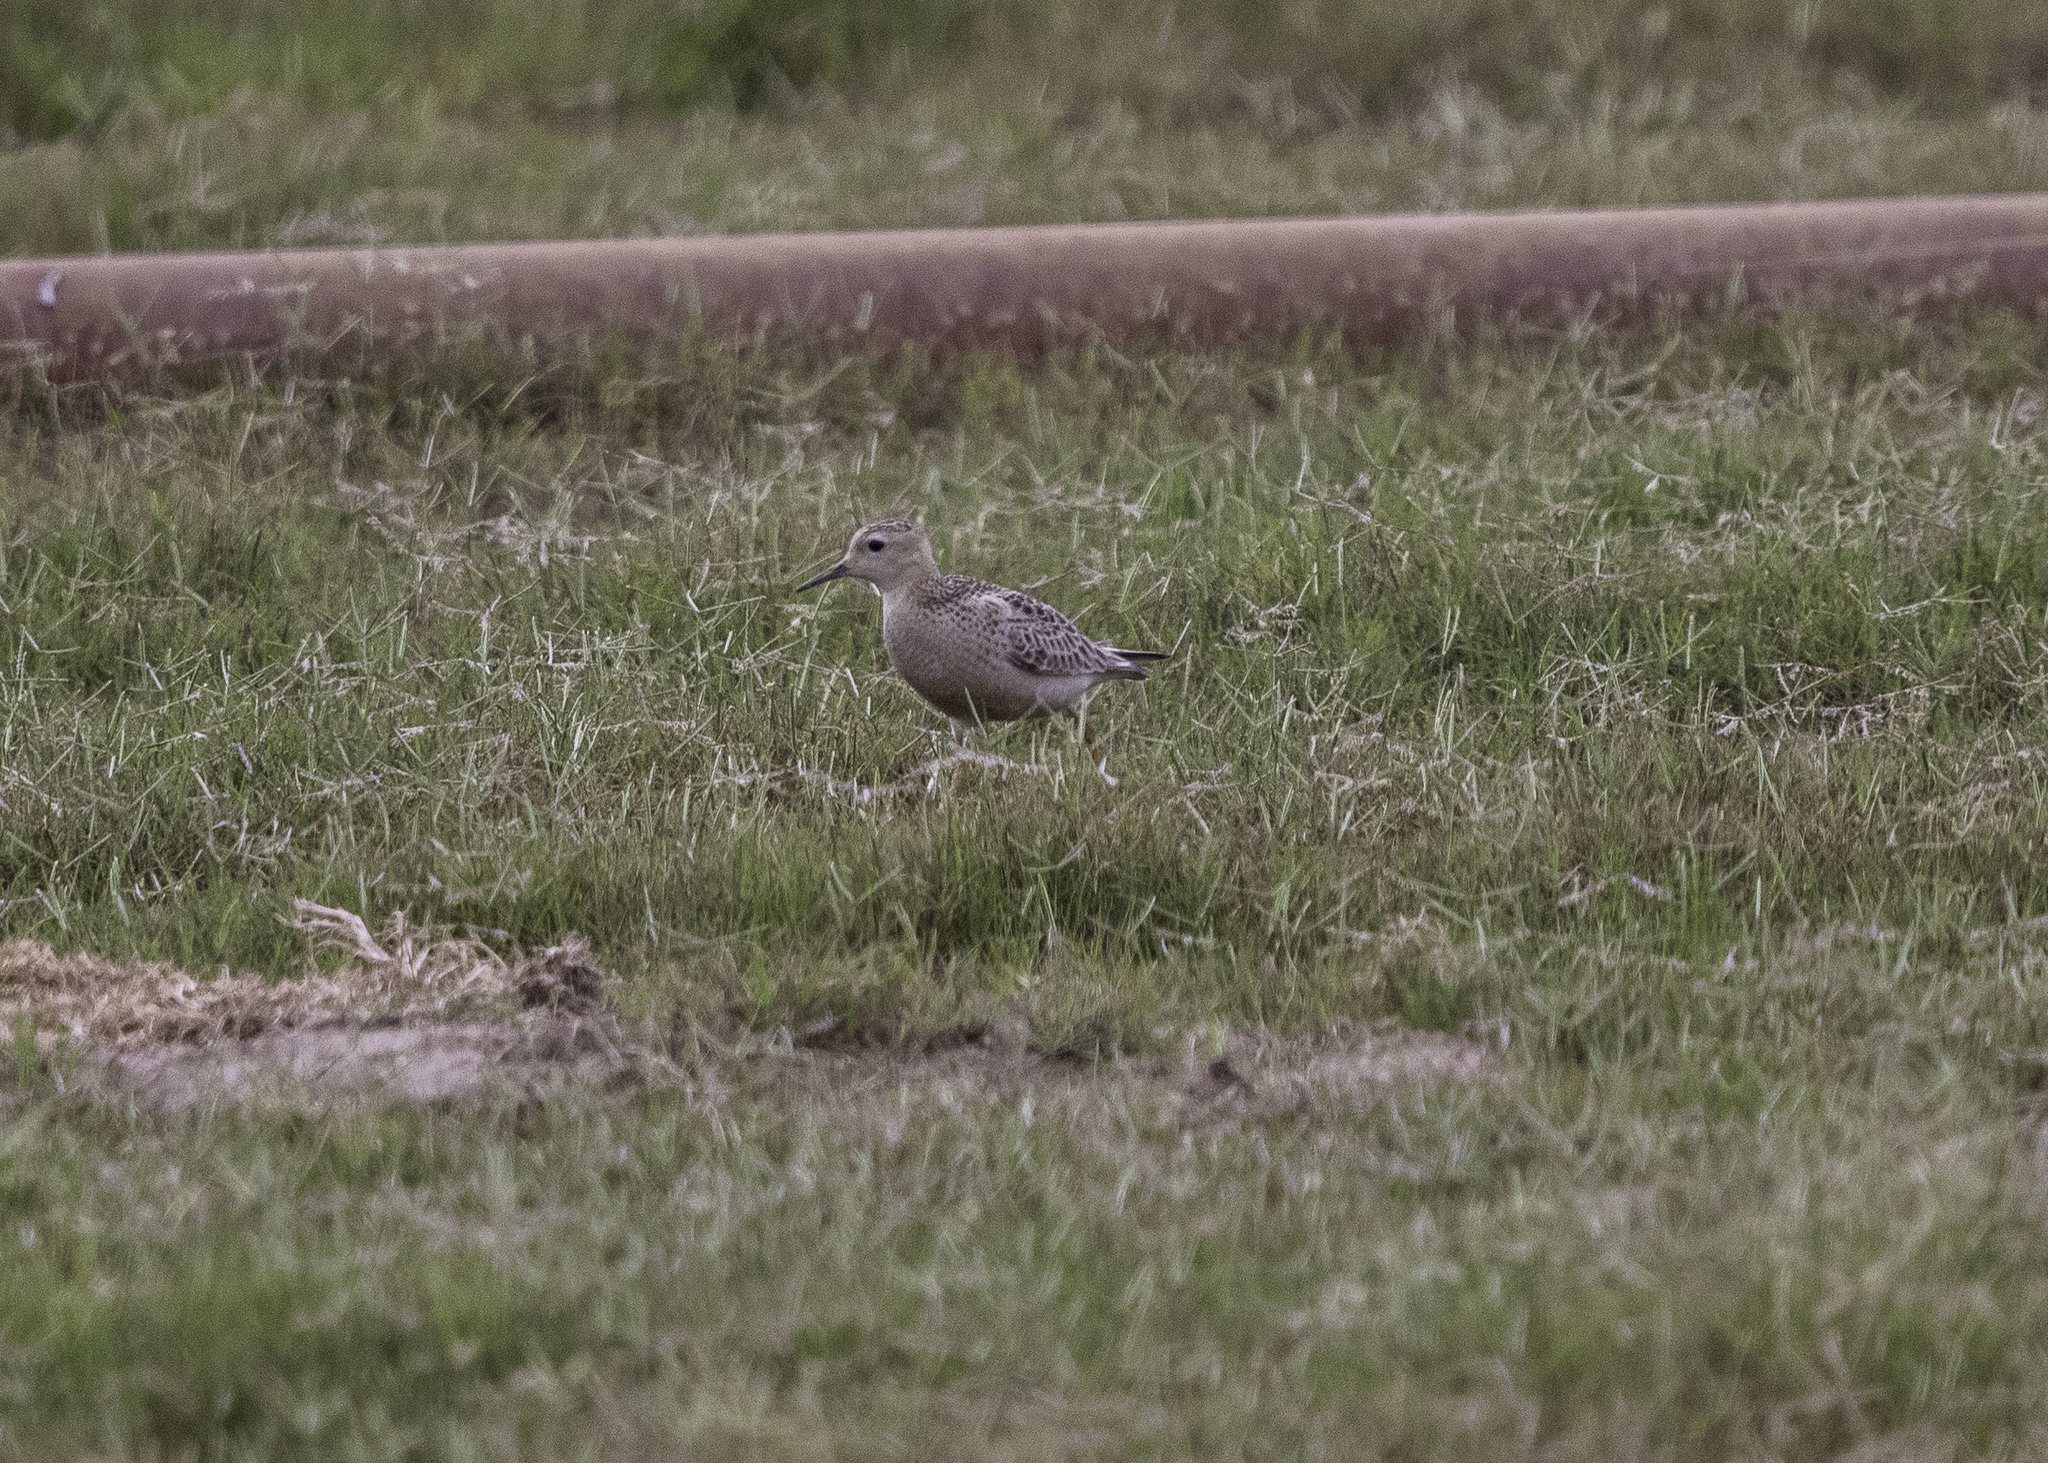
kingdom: Animalia
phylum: Chordata
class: Aves
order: Charadriiformes
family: Scolopacidae
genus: Calidris
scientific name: Calidris subruficollis
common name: Buff-breasted sandpiper
